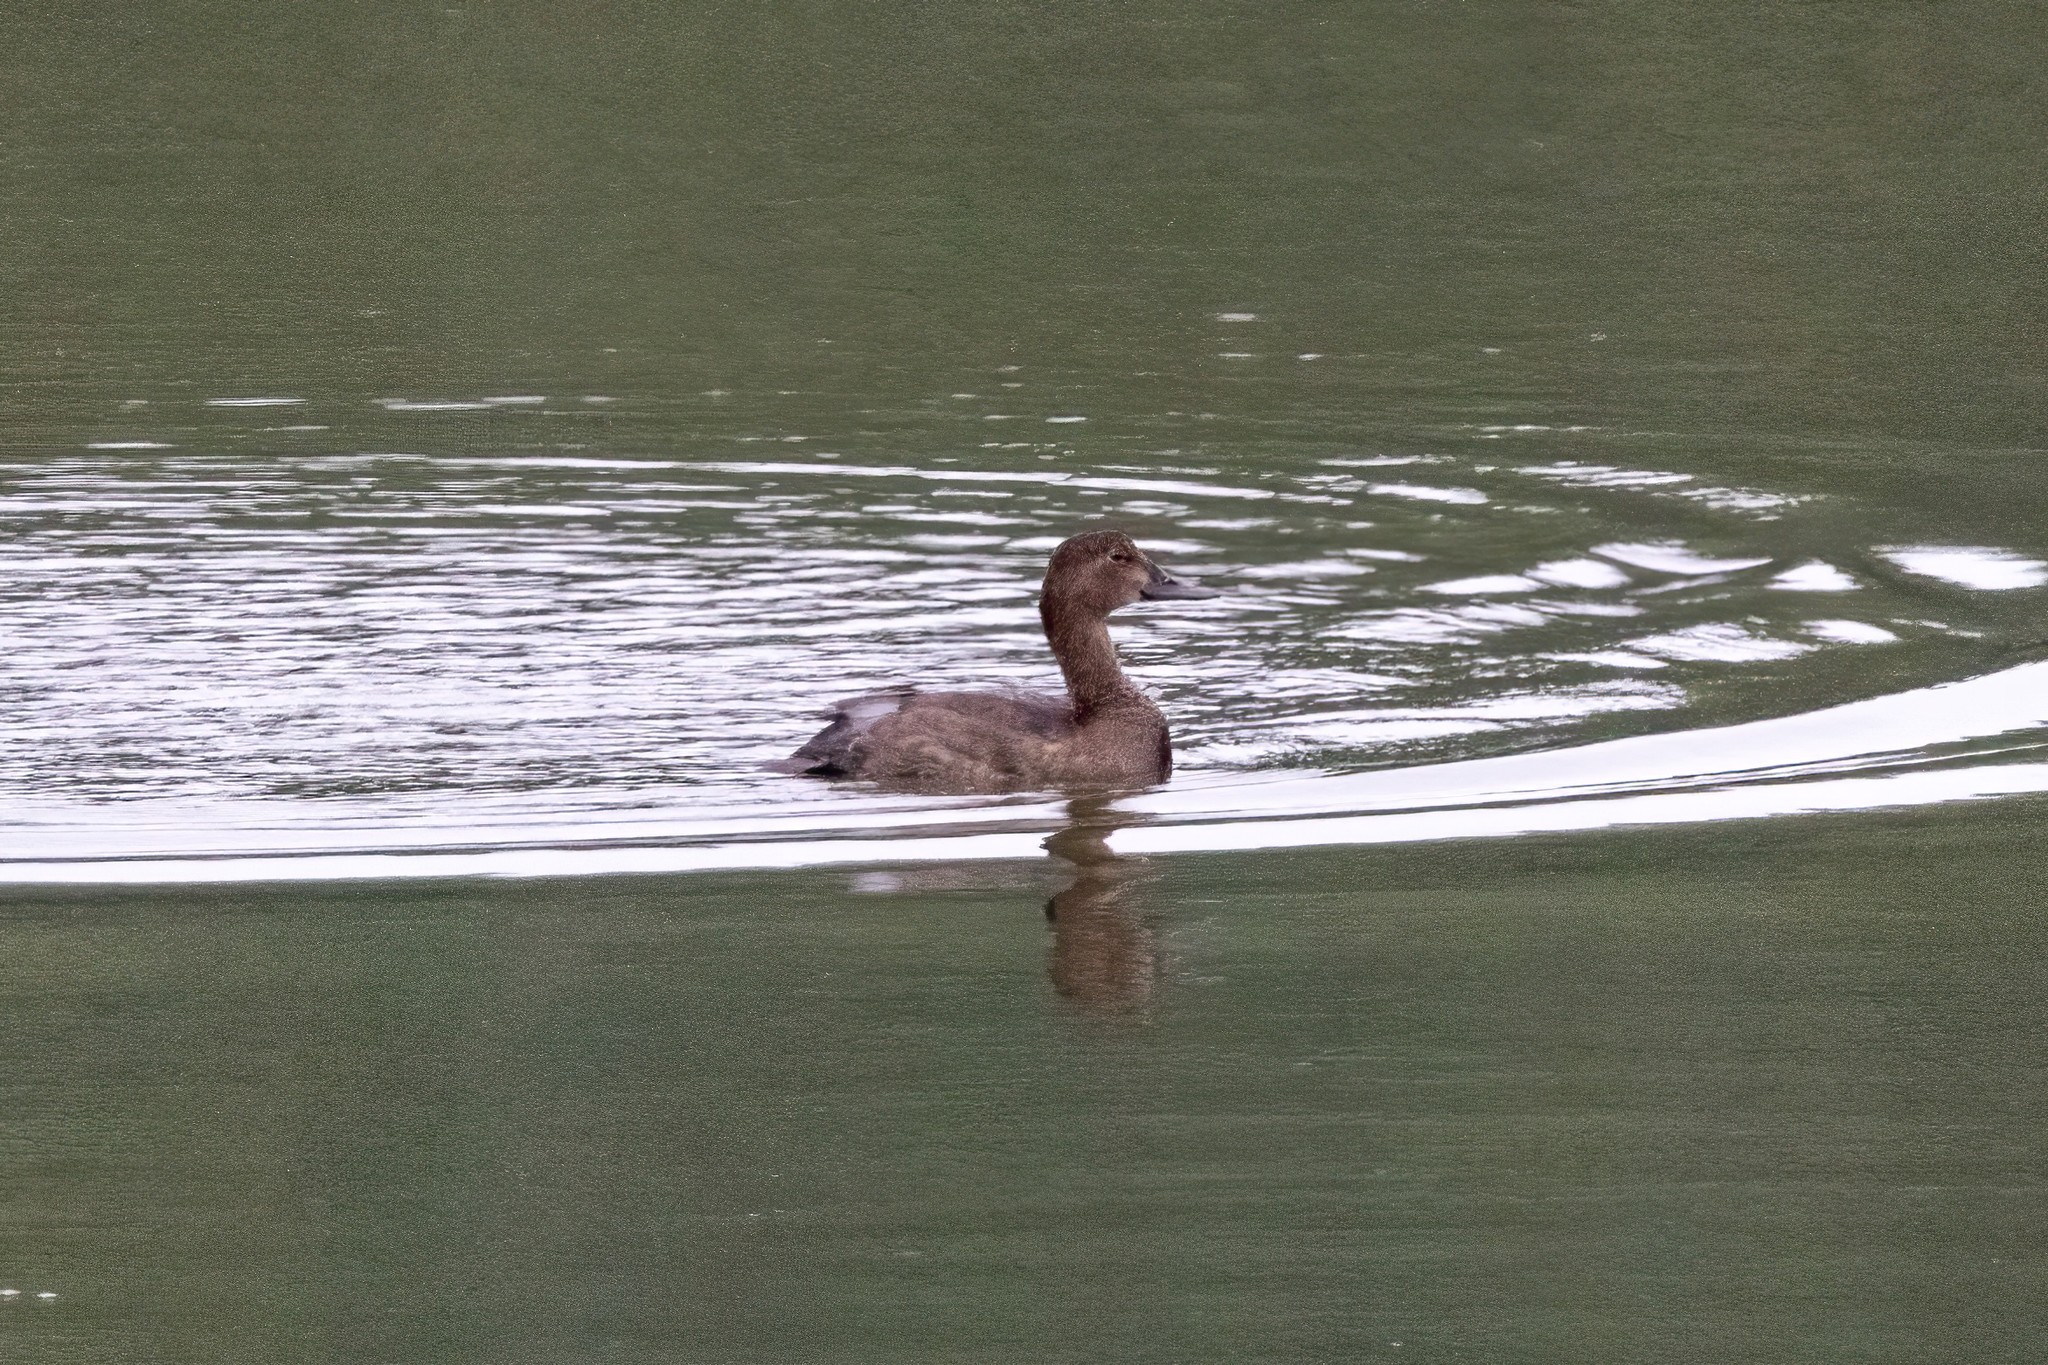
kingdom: Animalia
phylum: Chordata
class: Aves
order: Anseriformes
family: Anatidae
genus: Aythya
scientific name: Aythya ferina
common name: Common pochard
